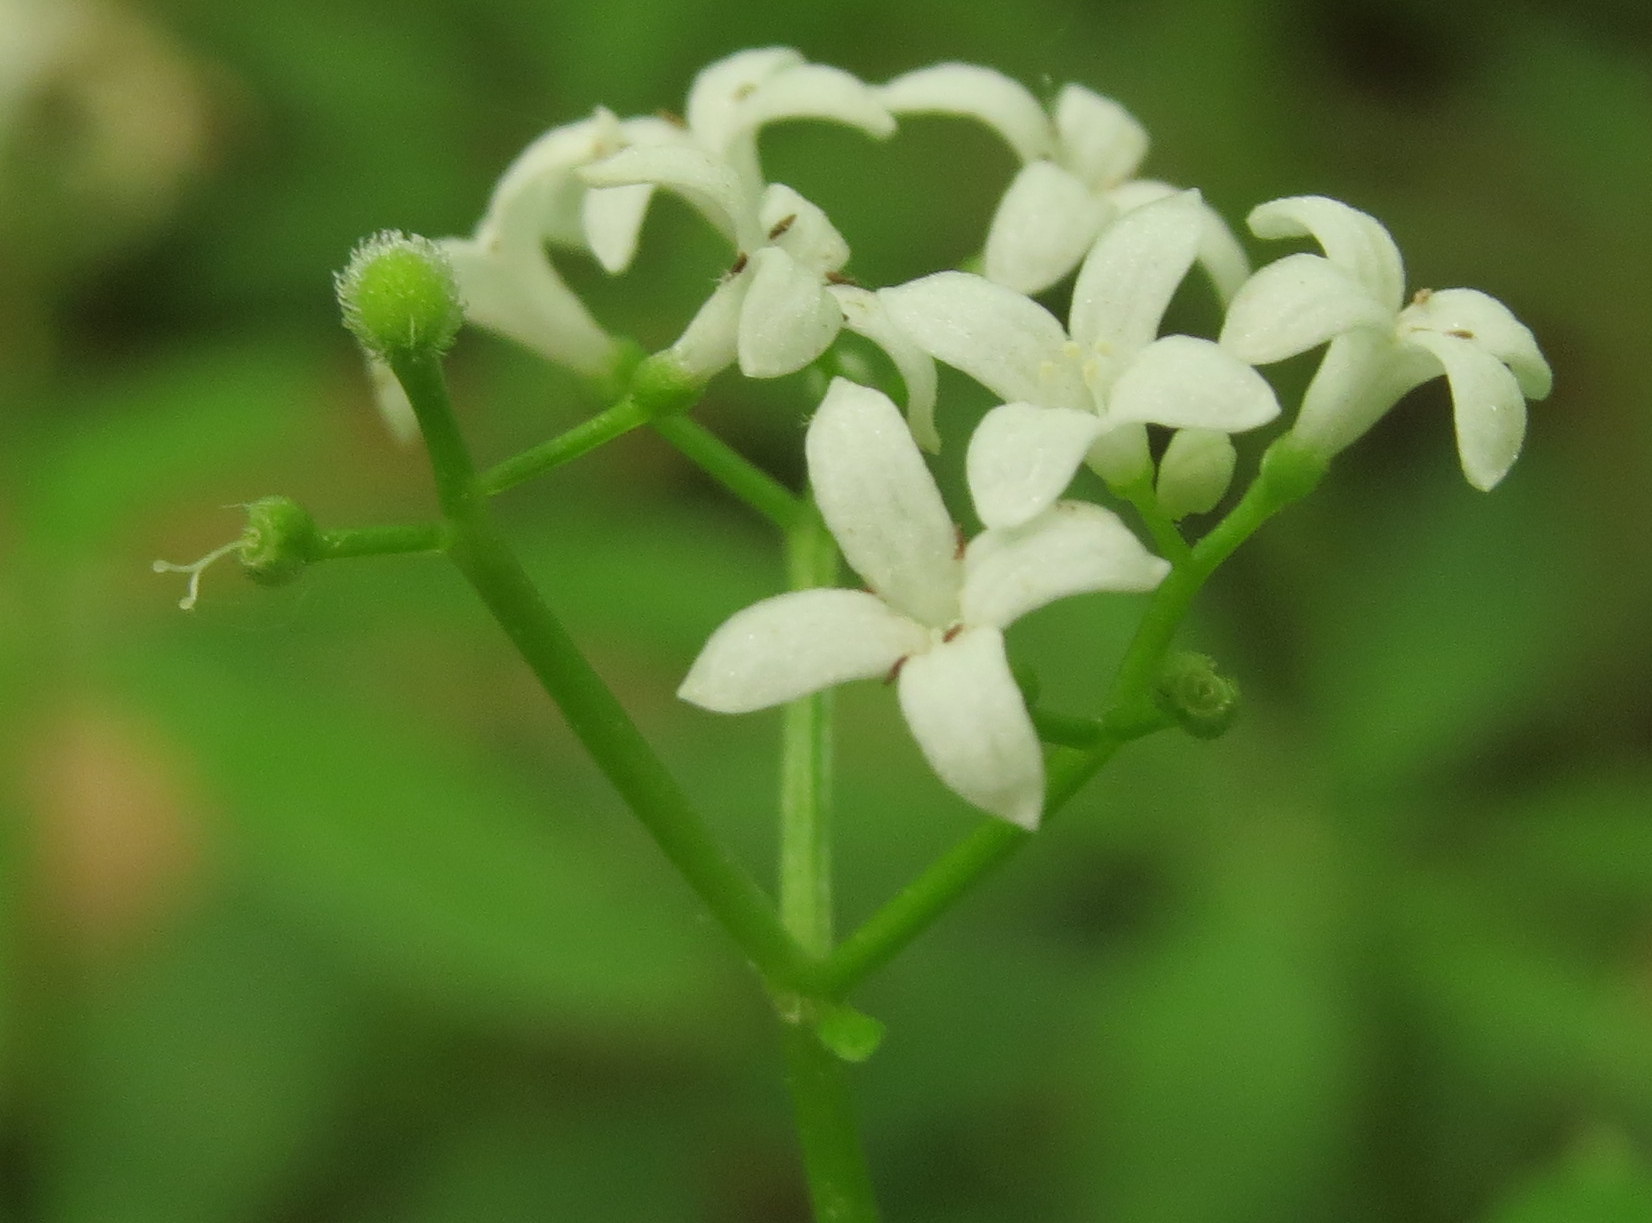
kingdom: Plantae
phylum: Tracheophyta
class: Magnoliopsida
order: Gentianales
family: Rubiaceae
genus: Galium
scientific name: Galium odoratum
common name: Sweet woodruff
